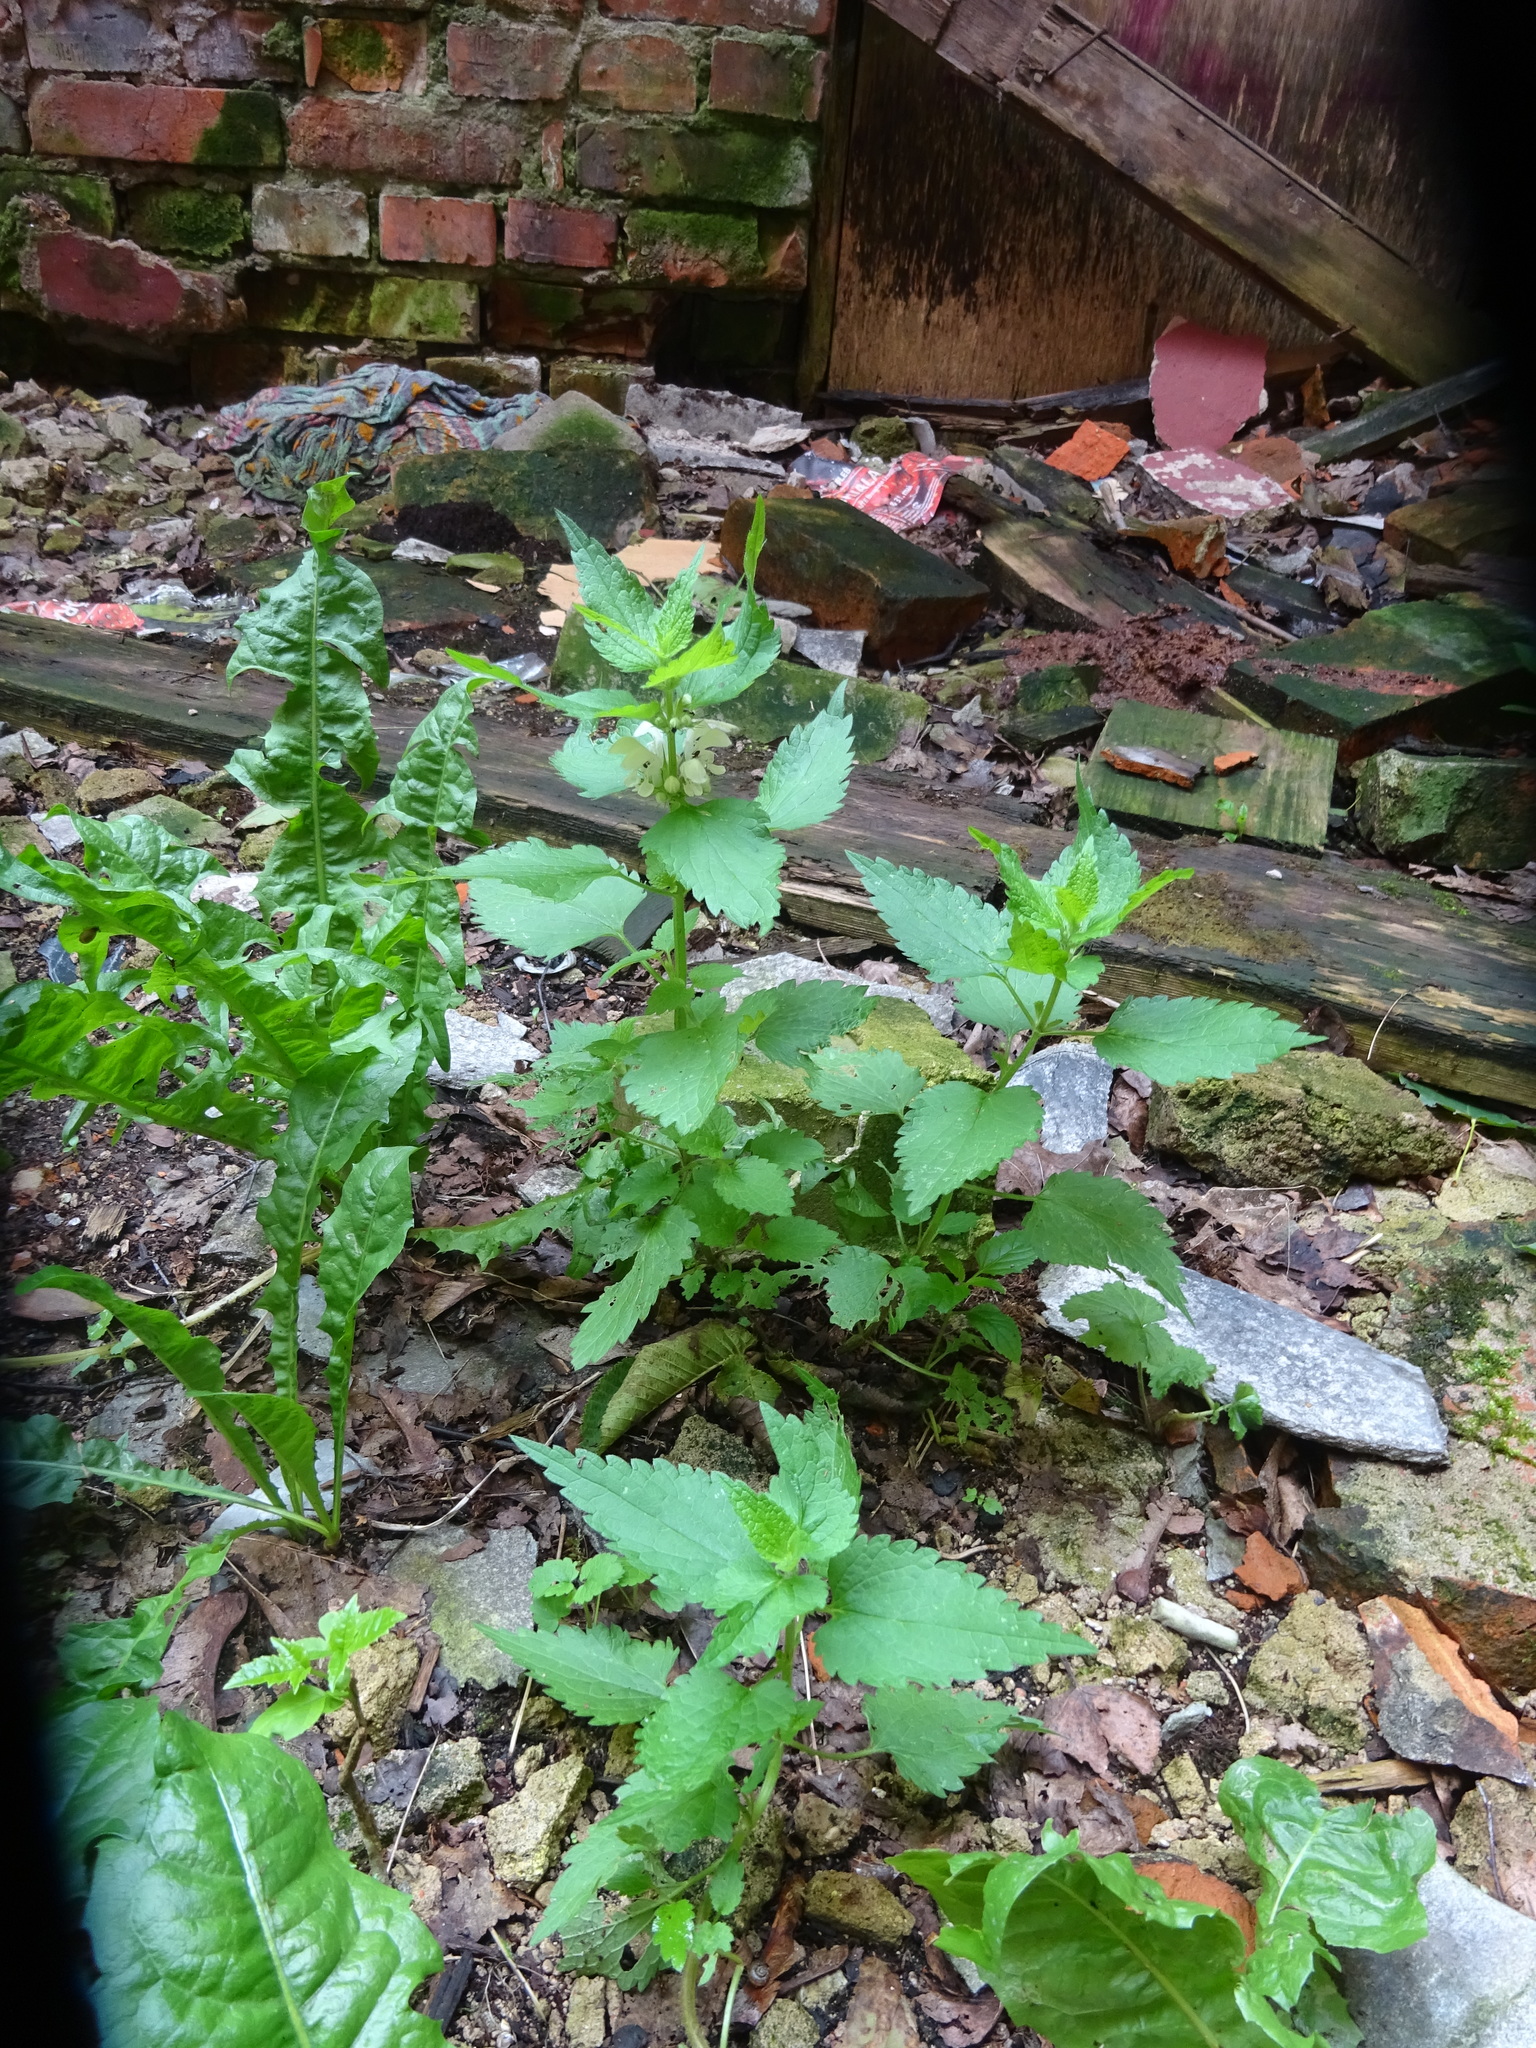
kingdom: Plantae
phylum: Tracheophyta
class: Magnoliopsida
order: Lamiales
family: Lamiaceae
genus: Lamium
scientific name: Lamium album
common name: White dead-nettle
